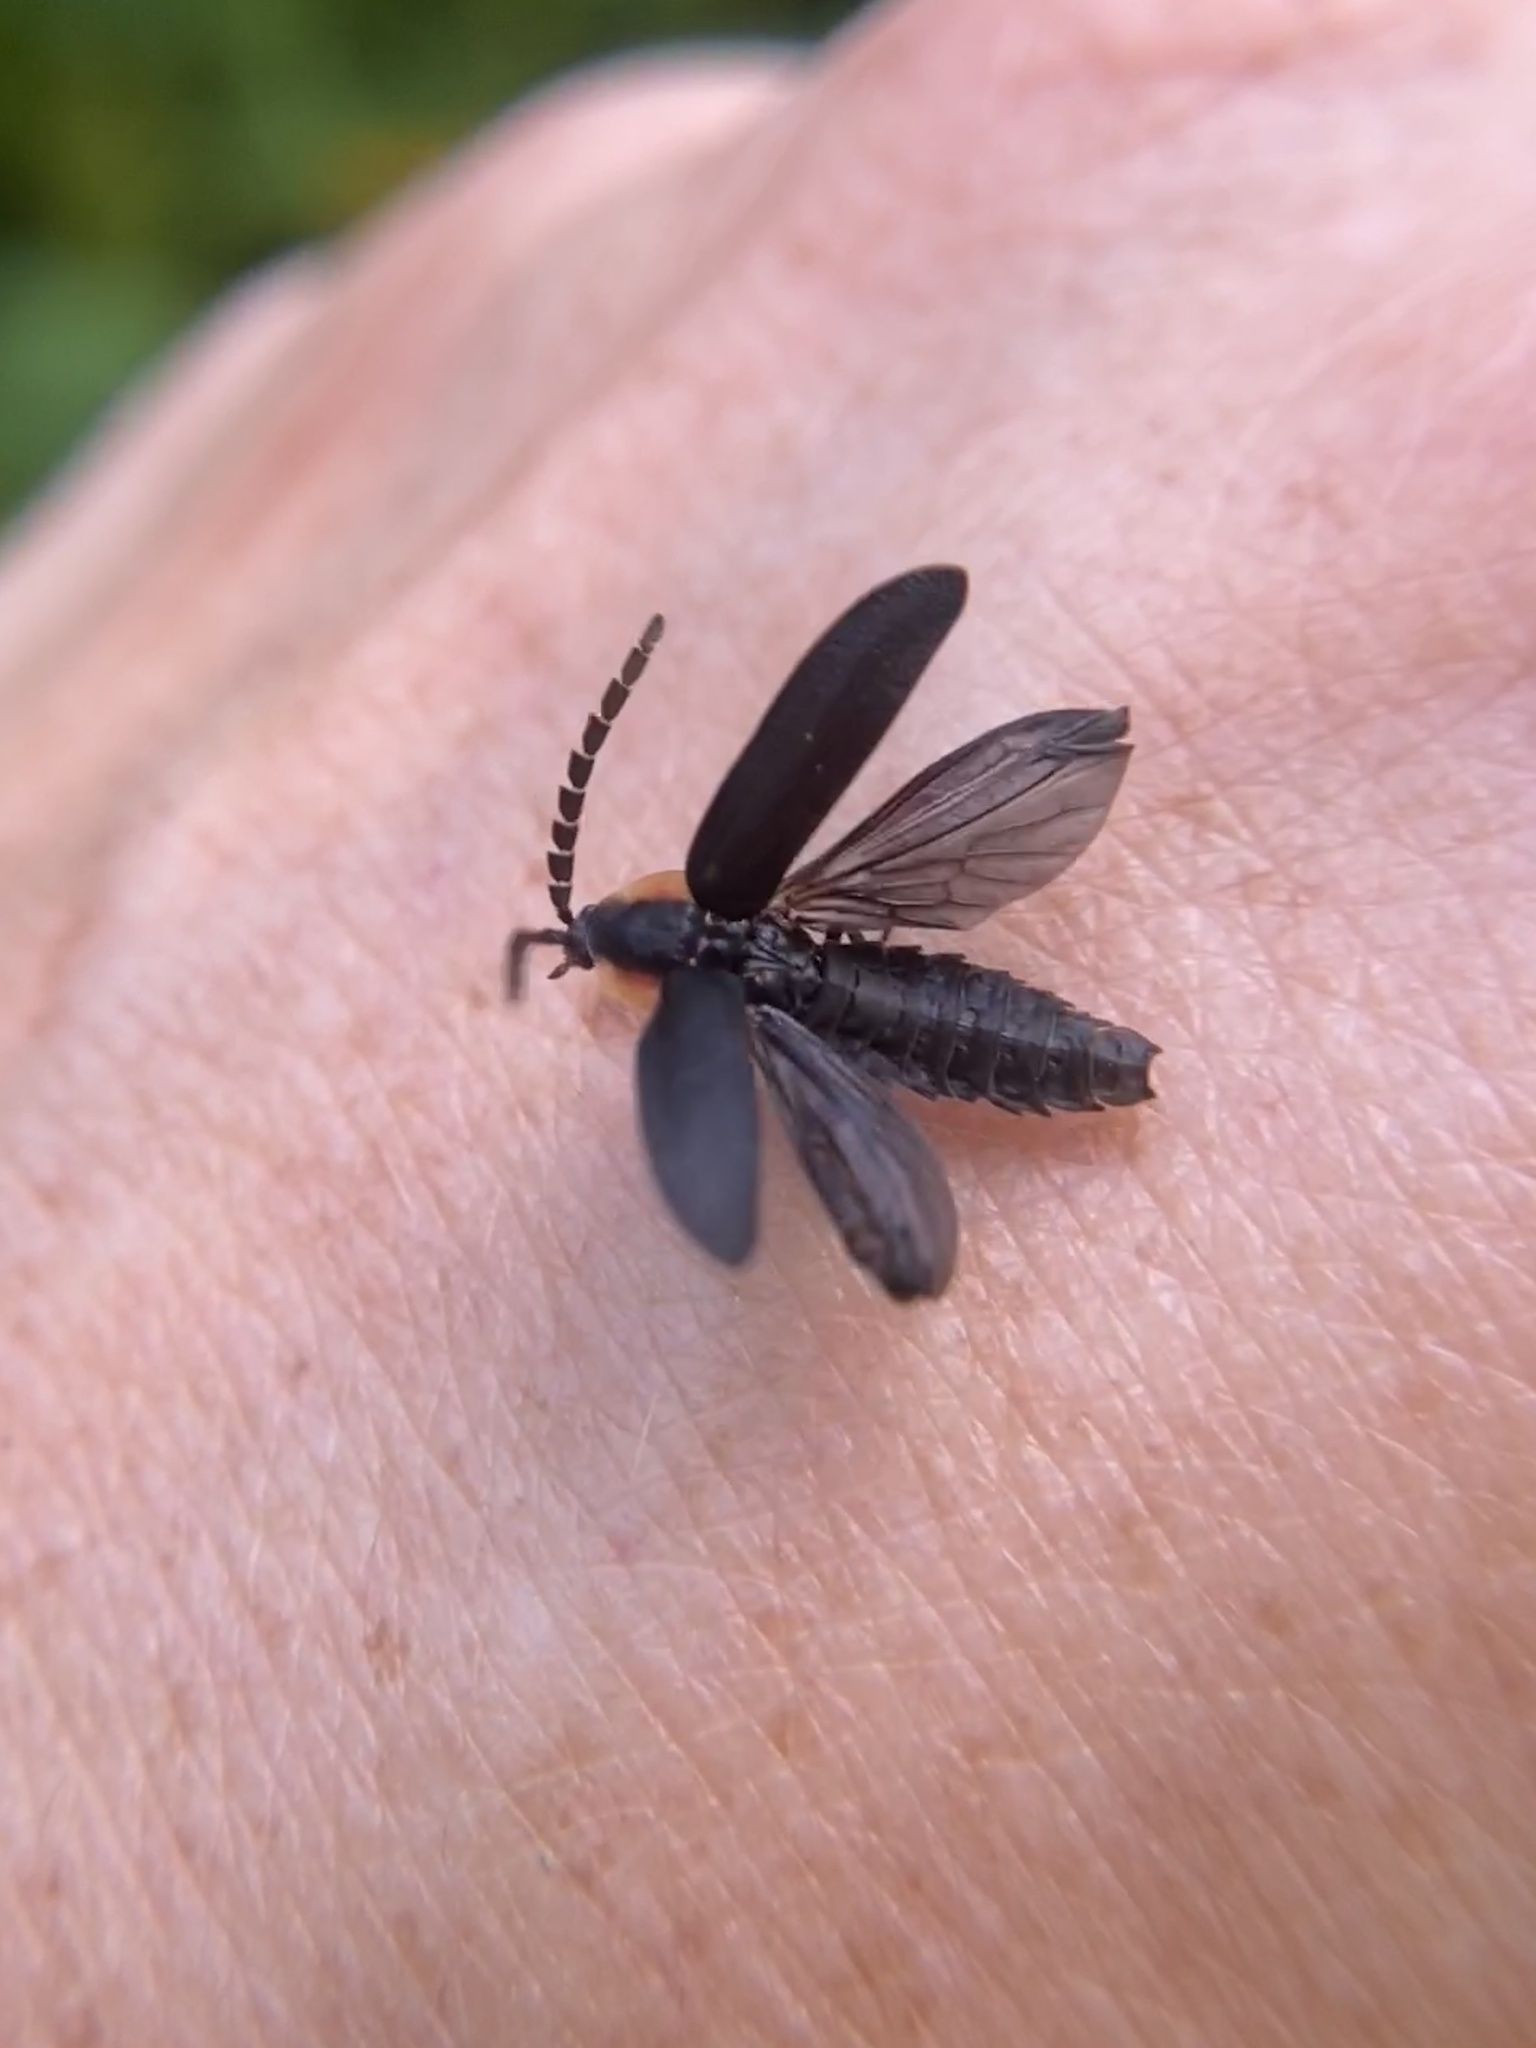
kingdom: Animalia
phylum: Arthropoda
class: Insecta
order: Coleoptera
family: Lampyridae
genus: Lucidota
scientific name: Lucidota atra
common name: Black firefly
